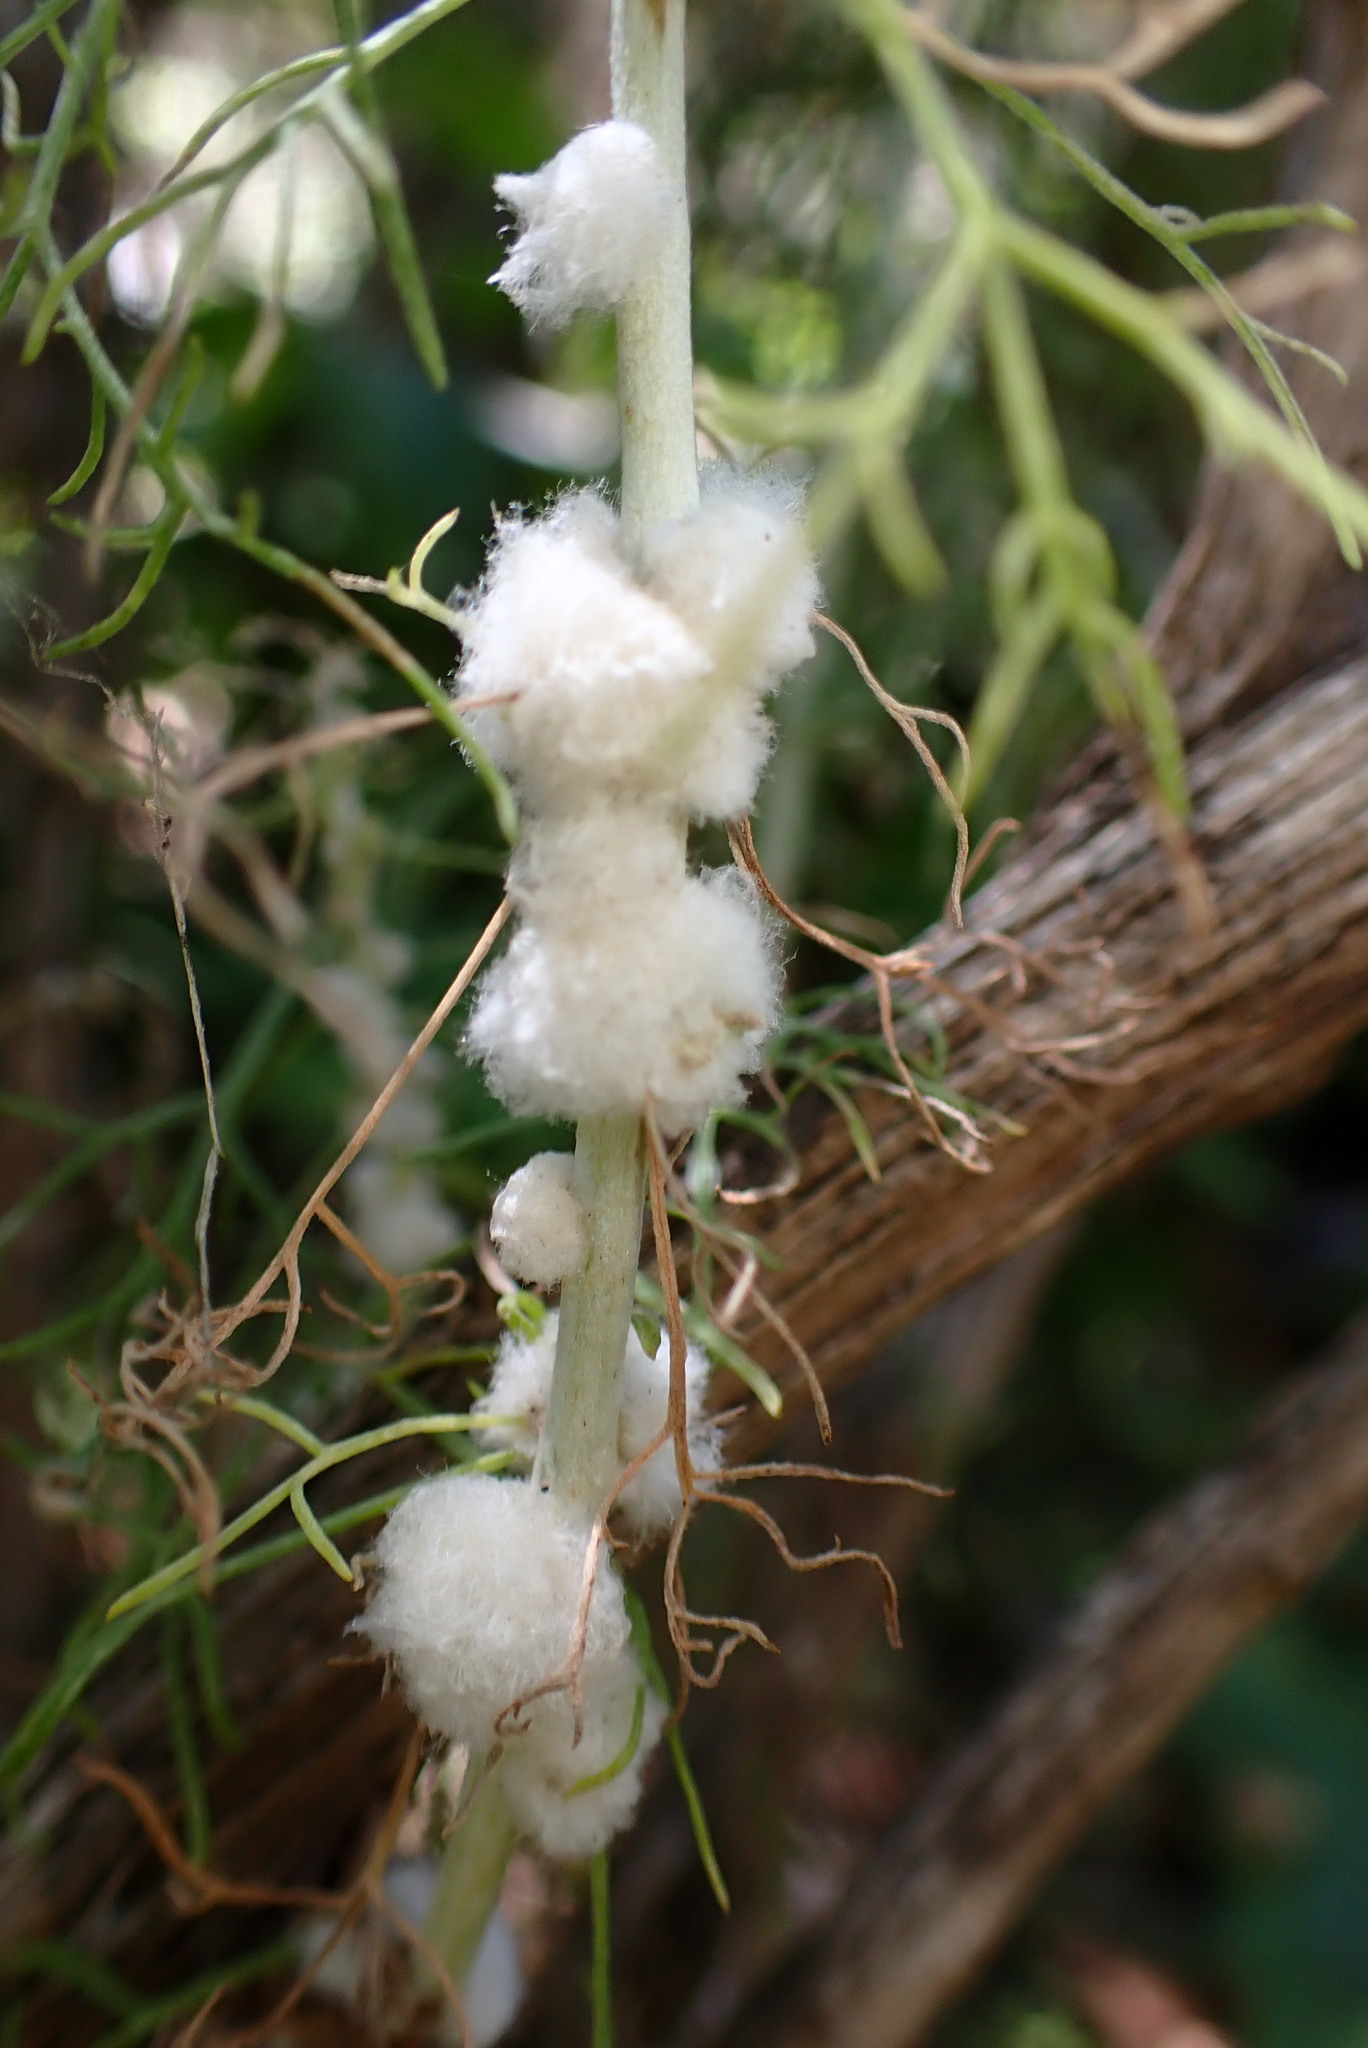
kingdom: Animalia
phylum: Arthropoda
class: Insecta
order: Diptera
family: Cecidomyiidae
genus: Rhopalomyia
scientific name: Rhopalomyia floccosa
